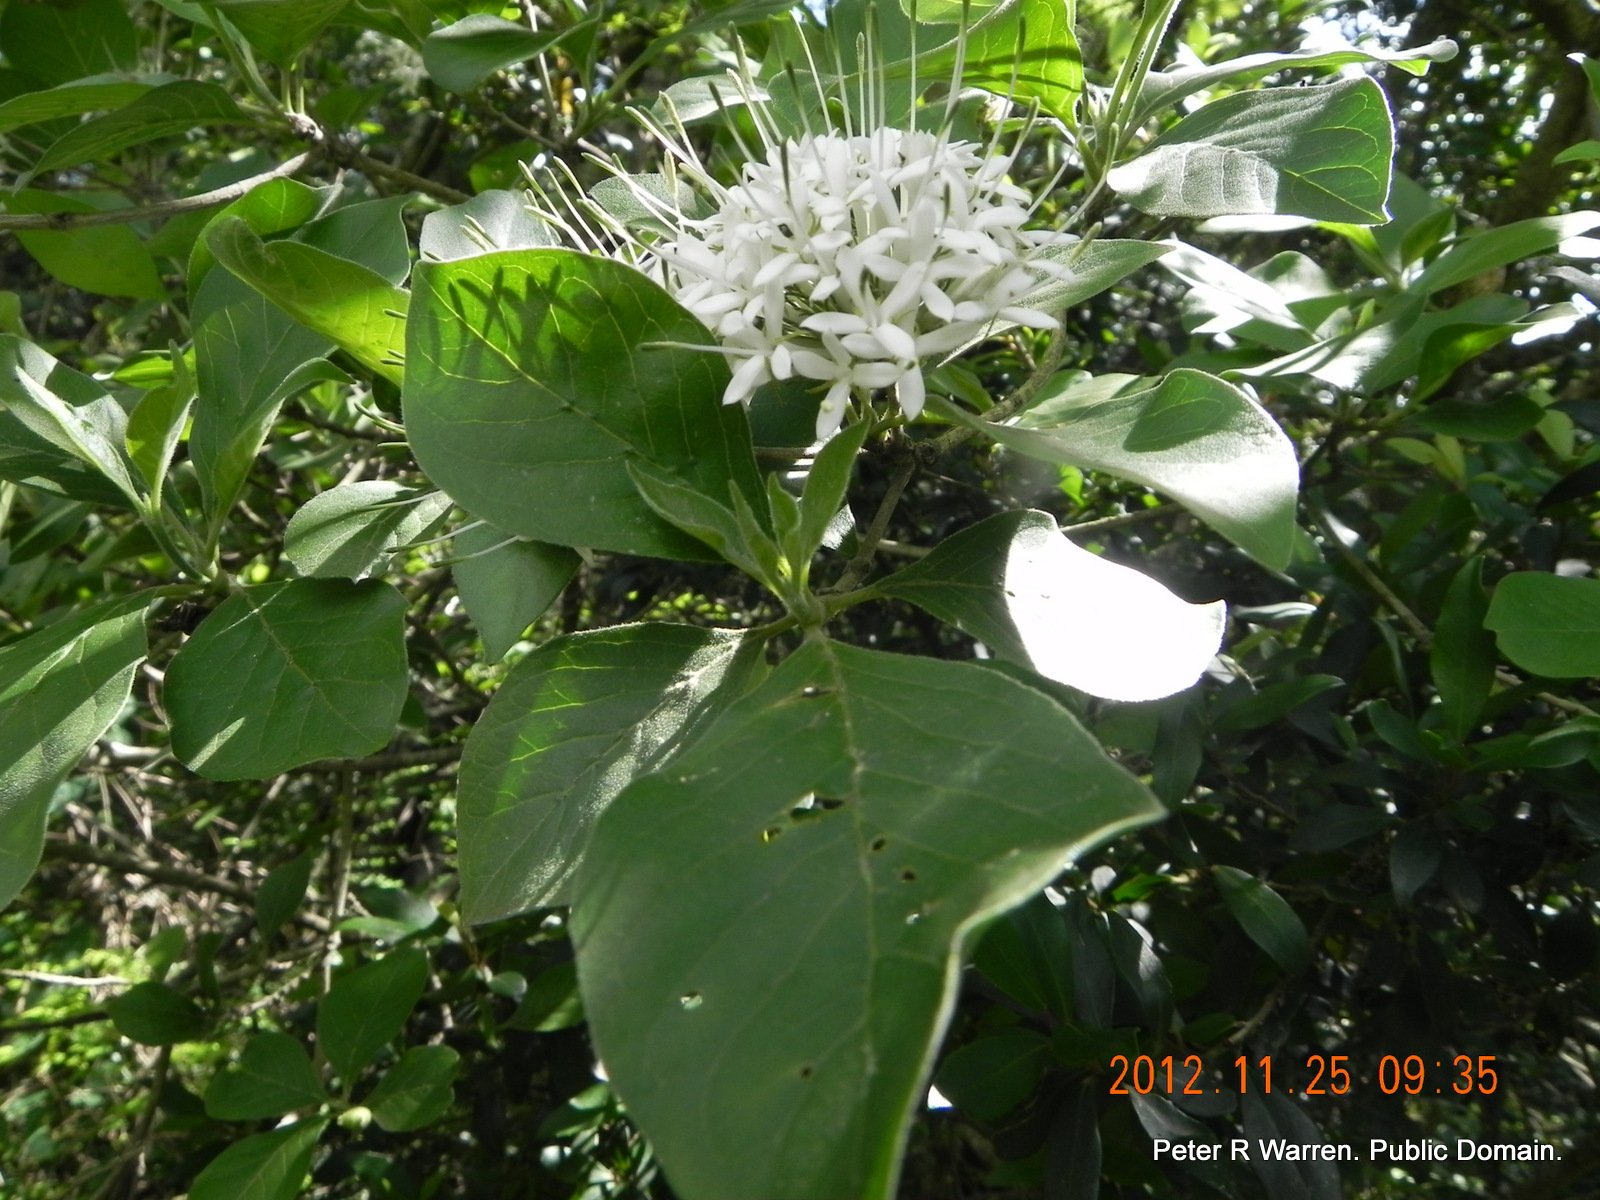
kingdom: Plantae
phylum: Tracheophyta
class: Magnoliopsida
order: Gentianales
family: Rubiaceae
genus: Pavetta
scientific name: Pavetta cooperi
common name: Pompom brides-bush
